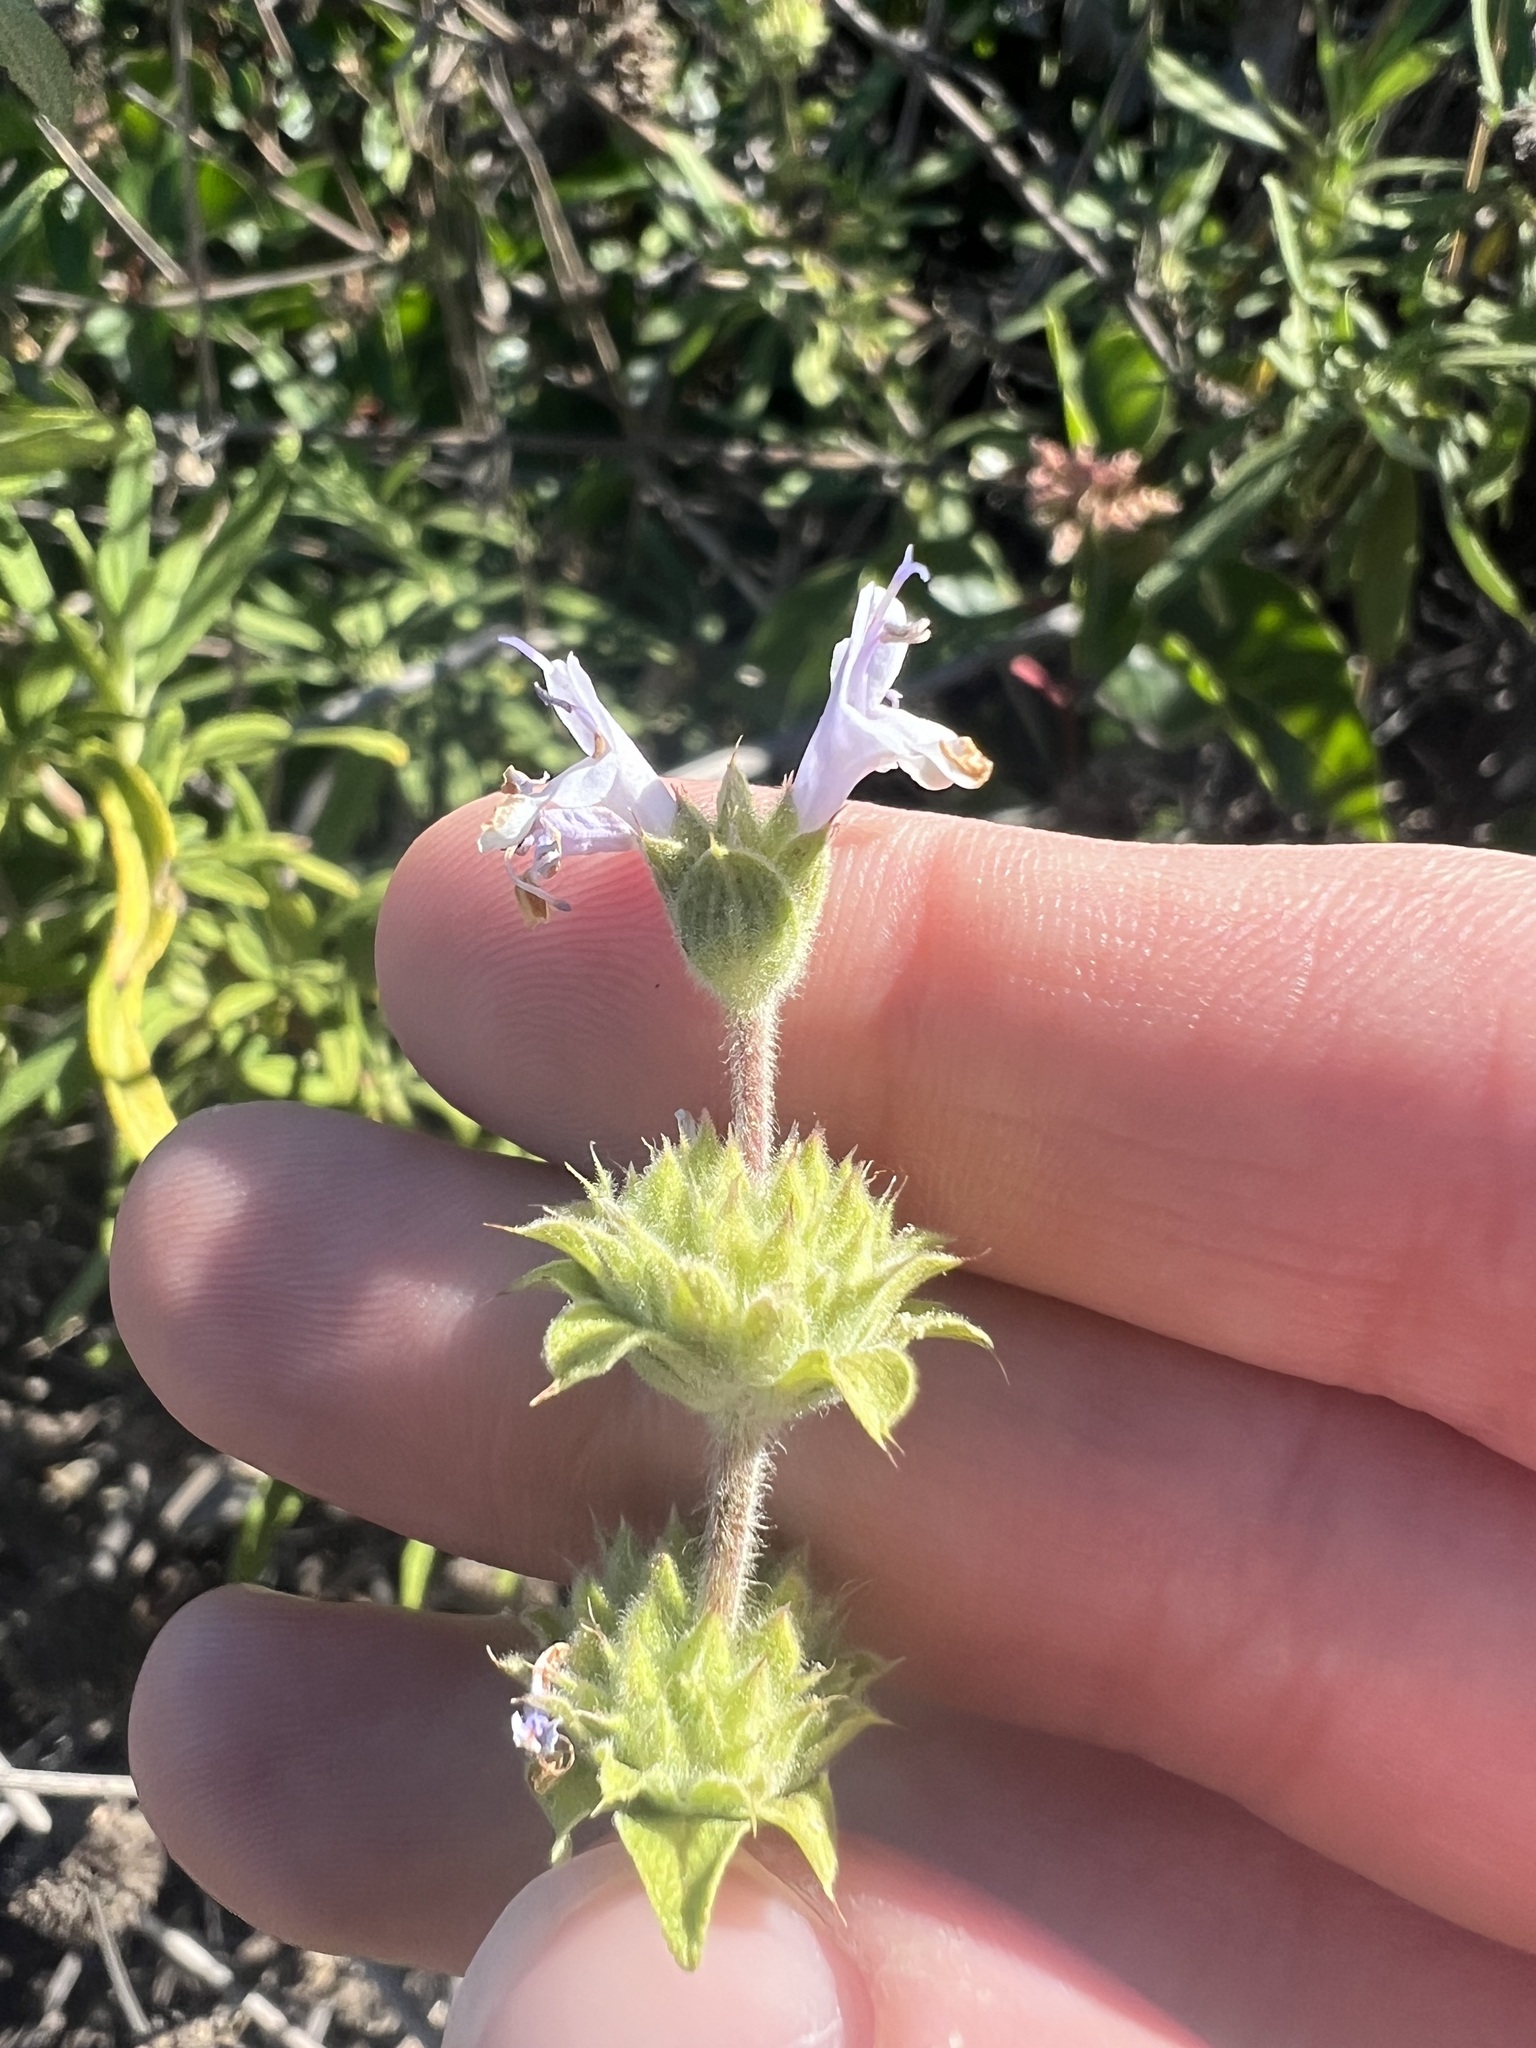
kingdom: Plantae
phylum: Tracheophyta
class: Magnoliopsida
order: Lamiales
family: Lamiaceae
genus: Salvia
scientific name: Salvia mellifera
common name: Black sage
